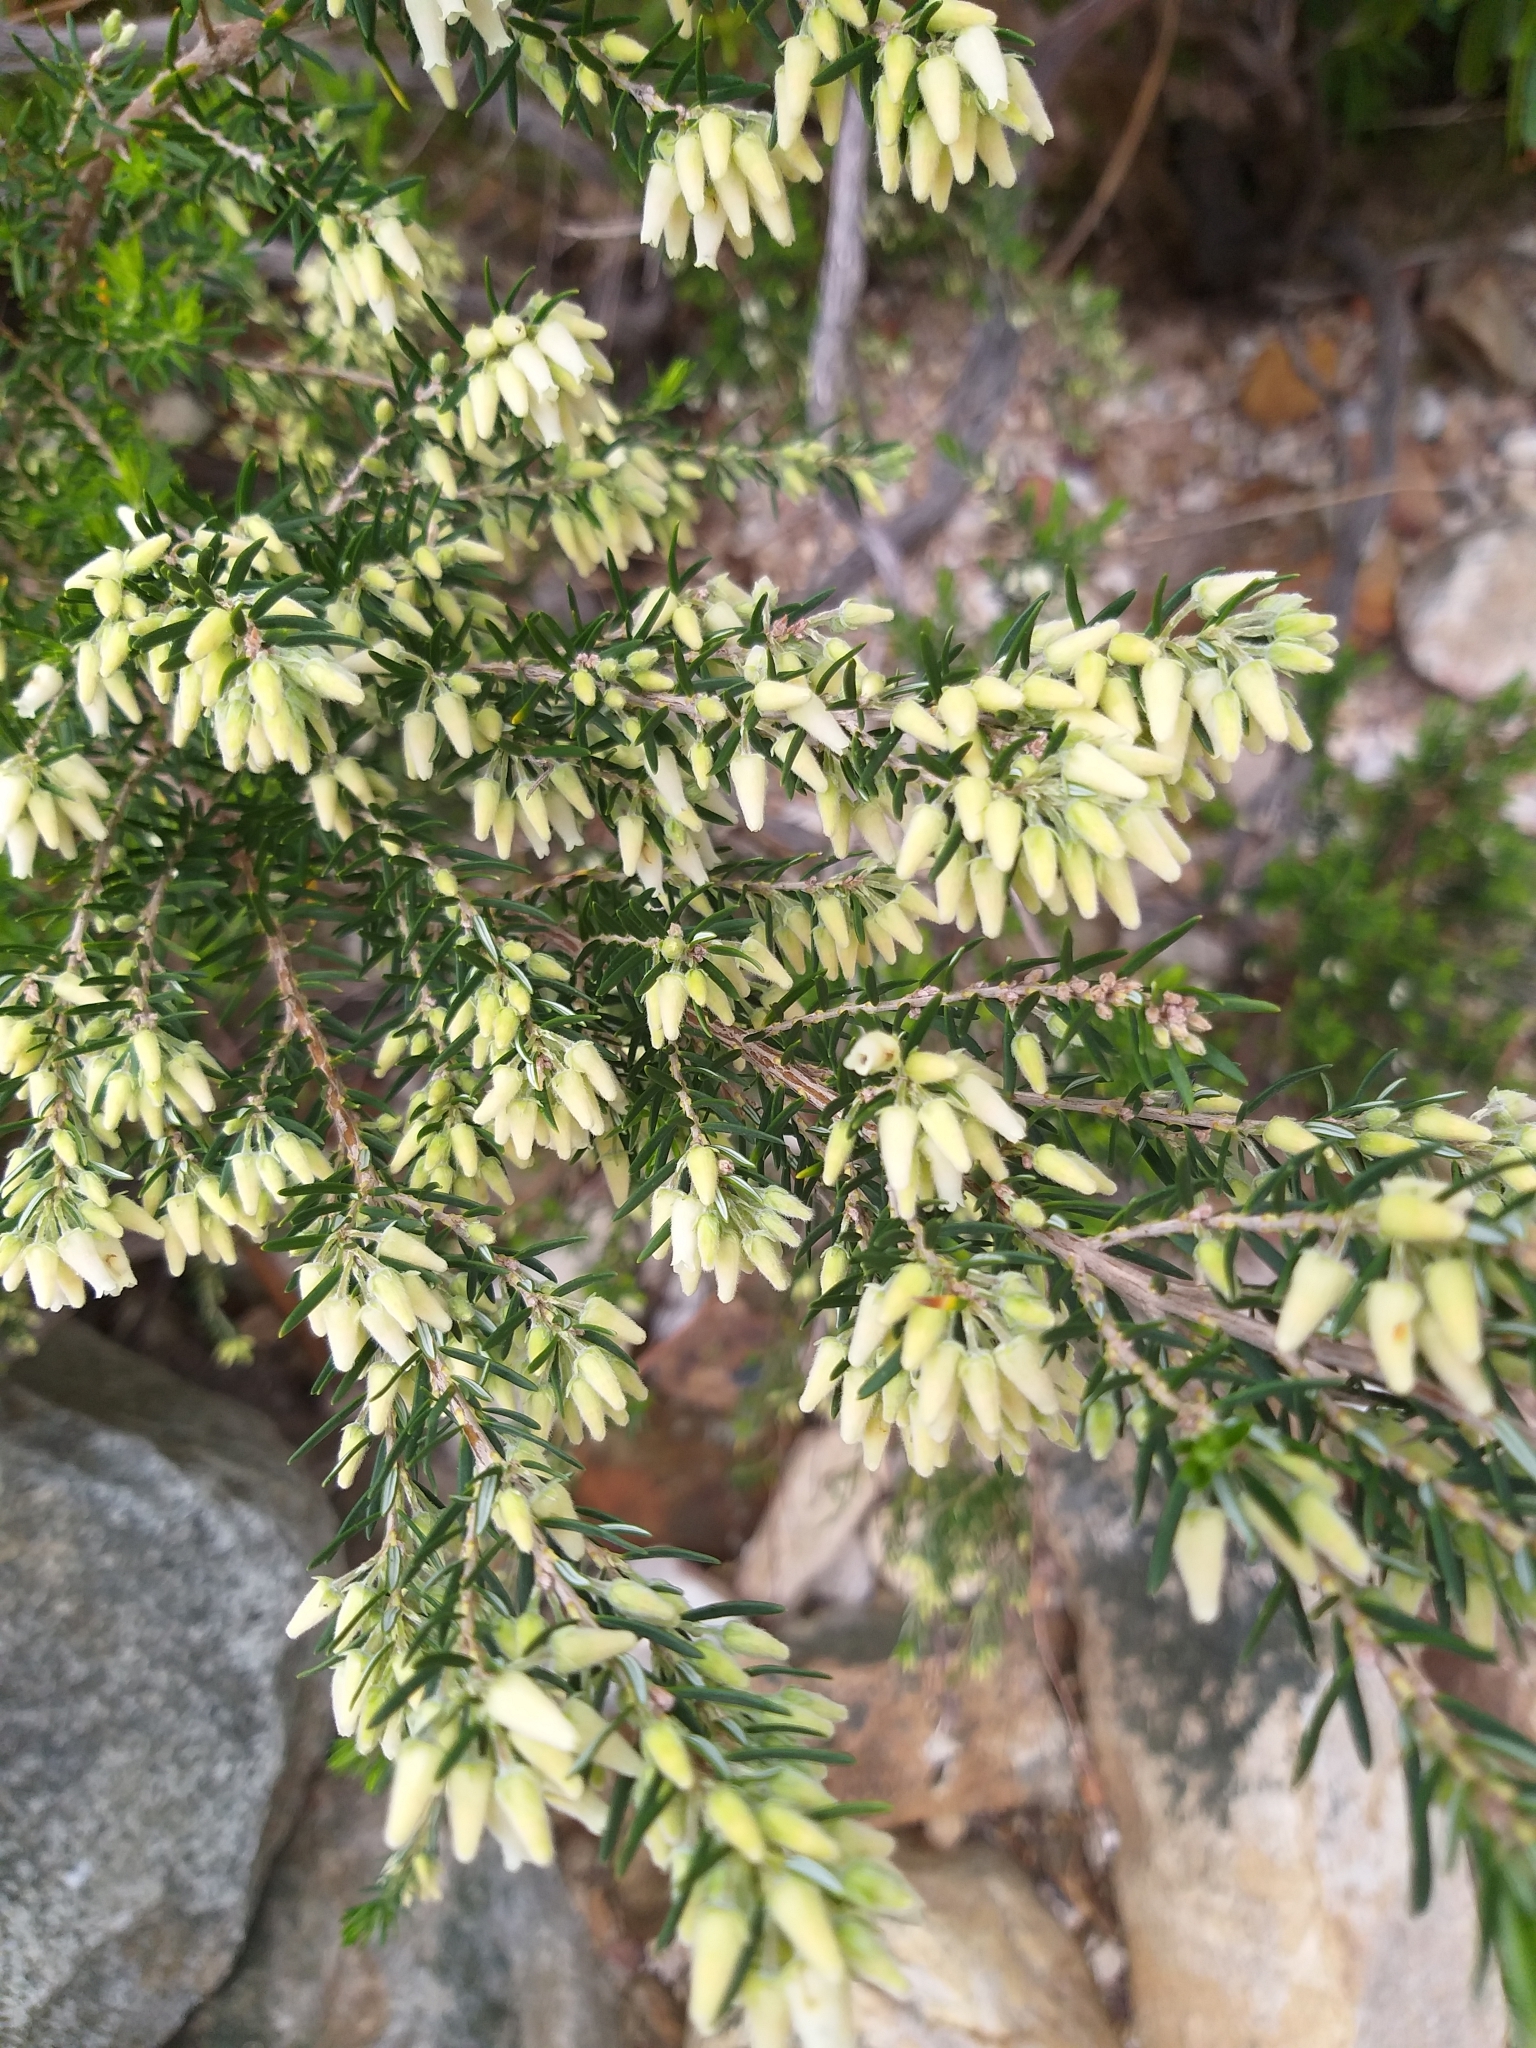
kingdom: Plantae
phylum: Tracheophyta
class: Magnoliopsida
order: Ericales
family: Ericaceae
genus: Erica
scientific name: Erica caffra
